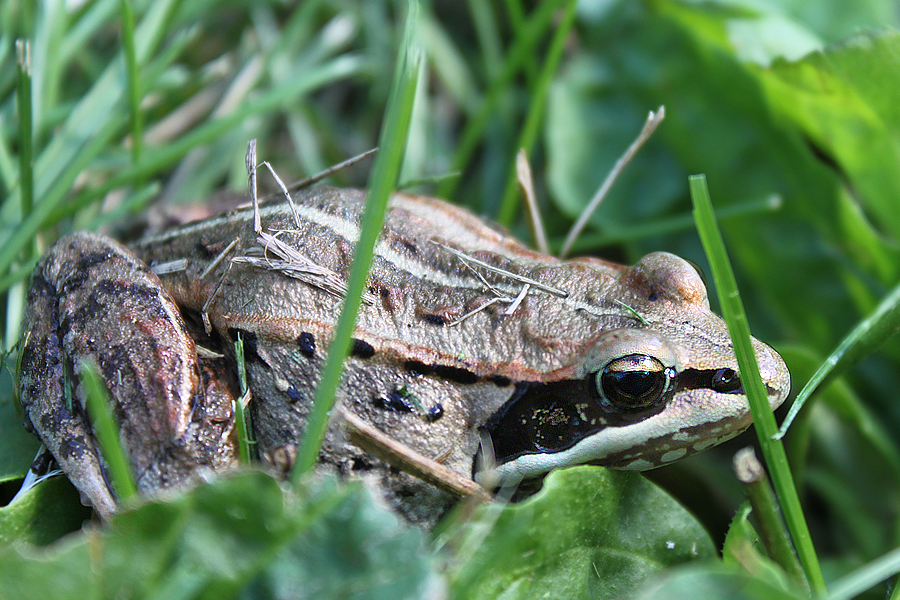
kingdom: Animalia
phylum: Chordata
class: Amphibia
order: Anura
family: Ranidae
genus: Lithobates
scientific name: Lithobates sylvaticus
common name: Wood frog
